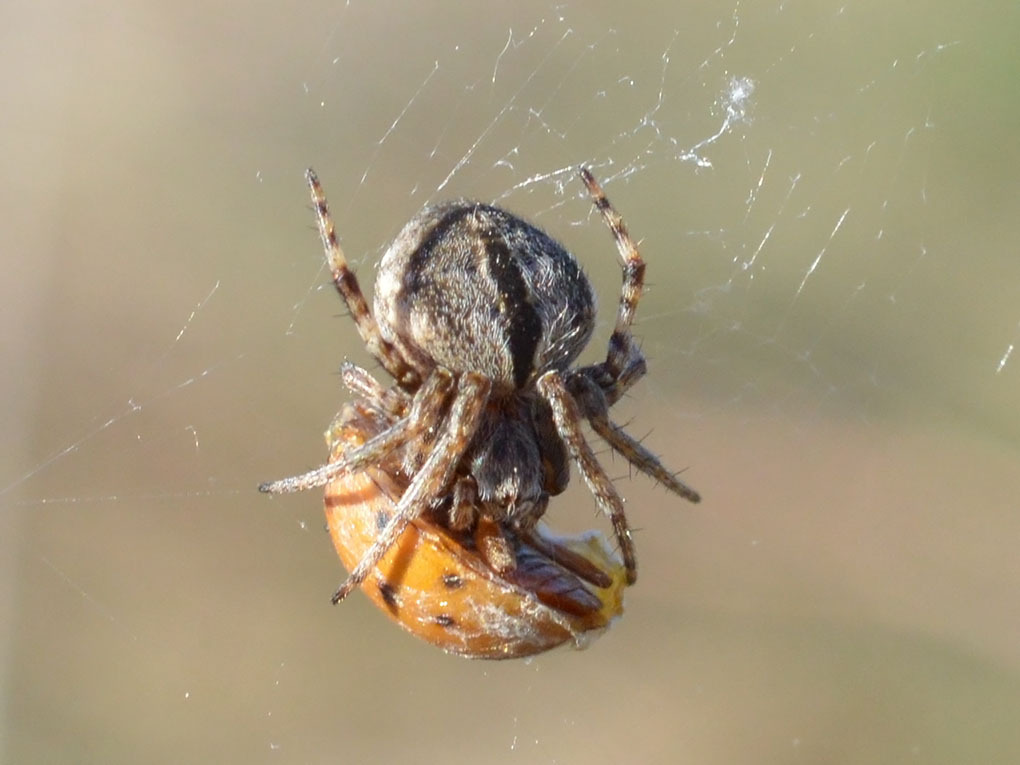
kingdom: Animalia
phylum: Arthropoda
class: Arachnida
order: Araneae
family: Araneidae
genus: Agalenatea
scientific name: Agalenatea redii
